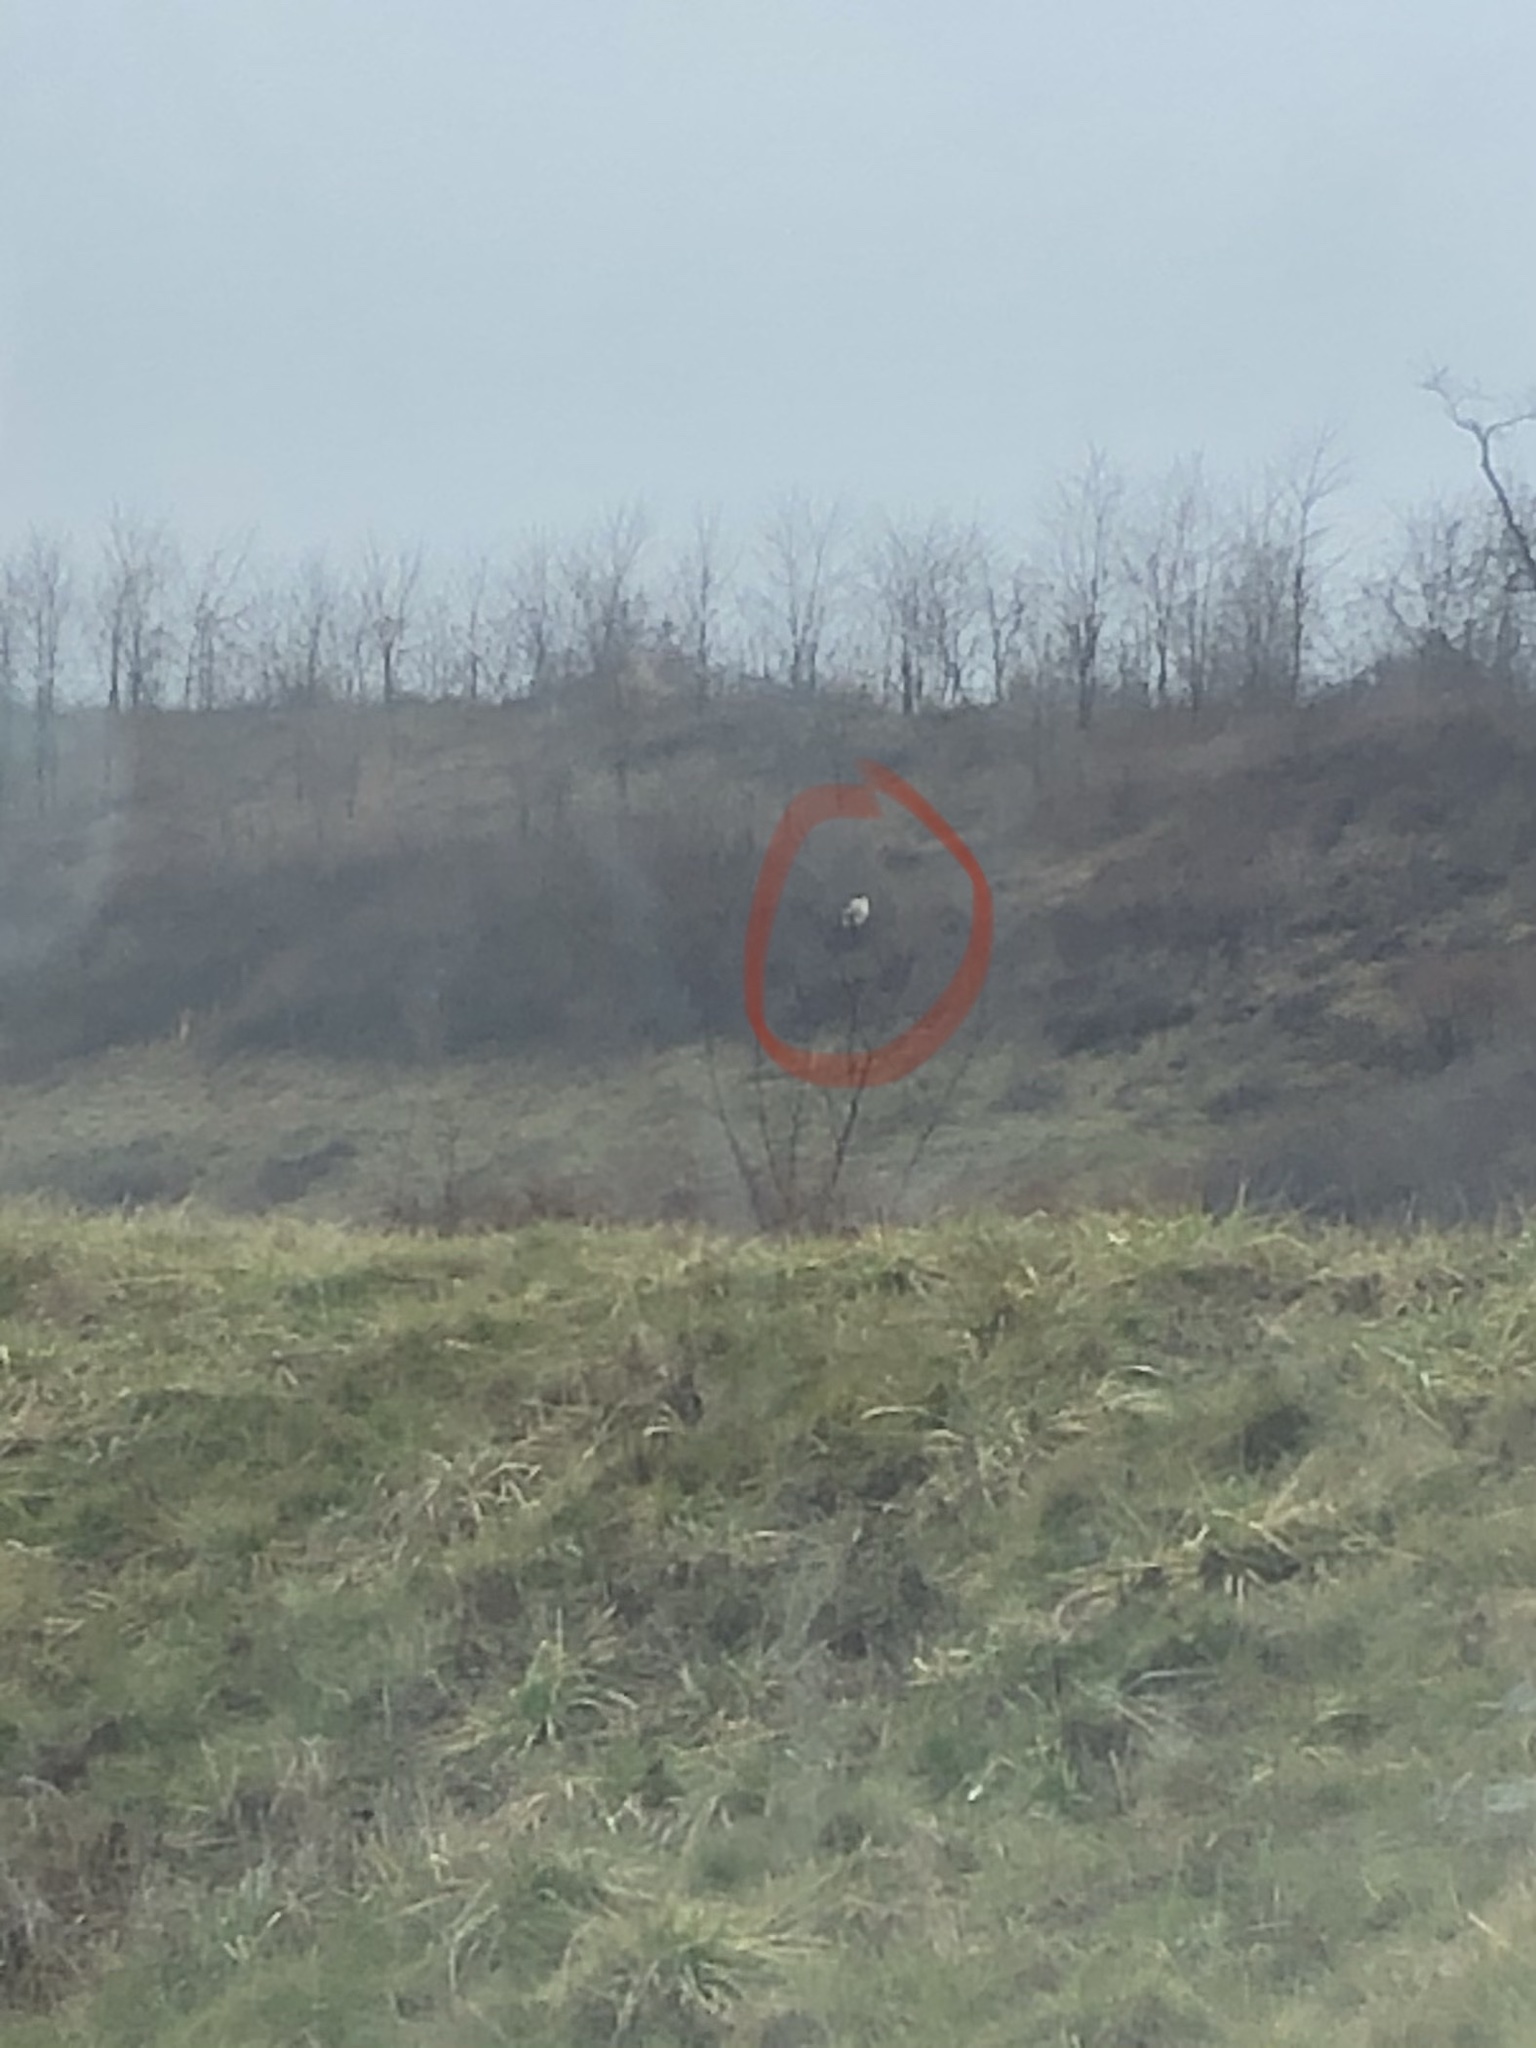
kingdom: Animalia
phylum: Chordata
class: Aves
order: Passeriformes
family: Laniidae
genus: Lanius
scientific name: Lanius borealis
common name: Northern shrike
